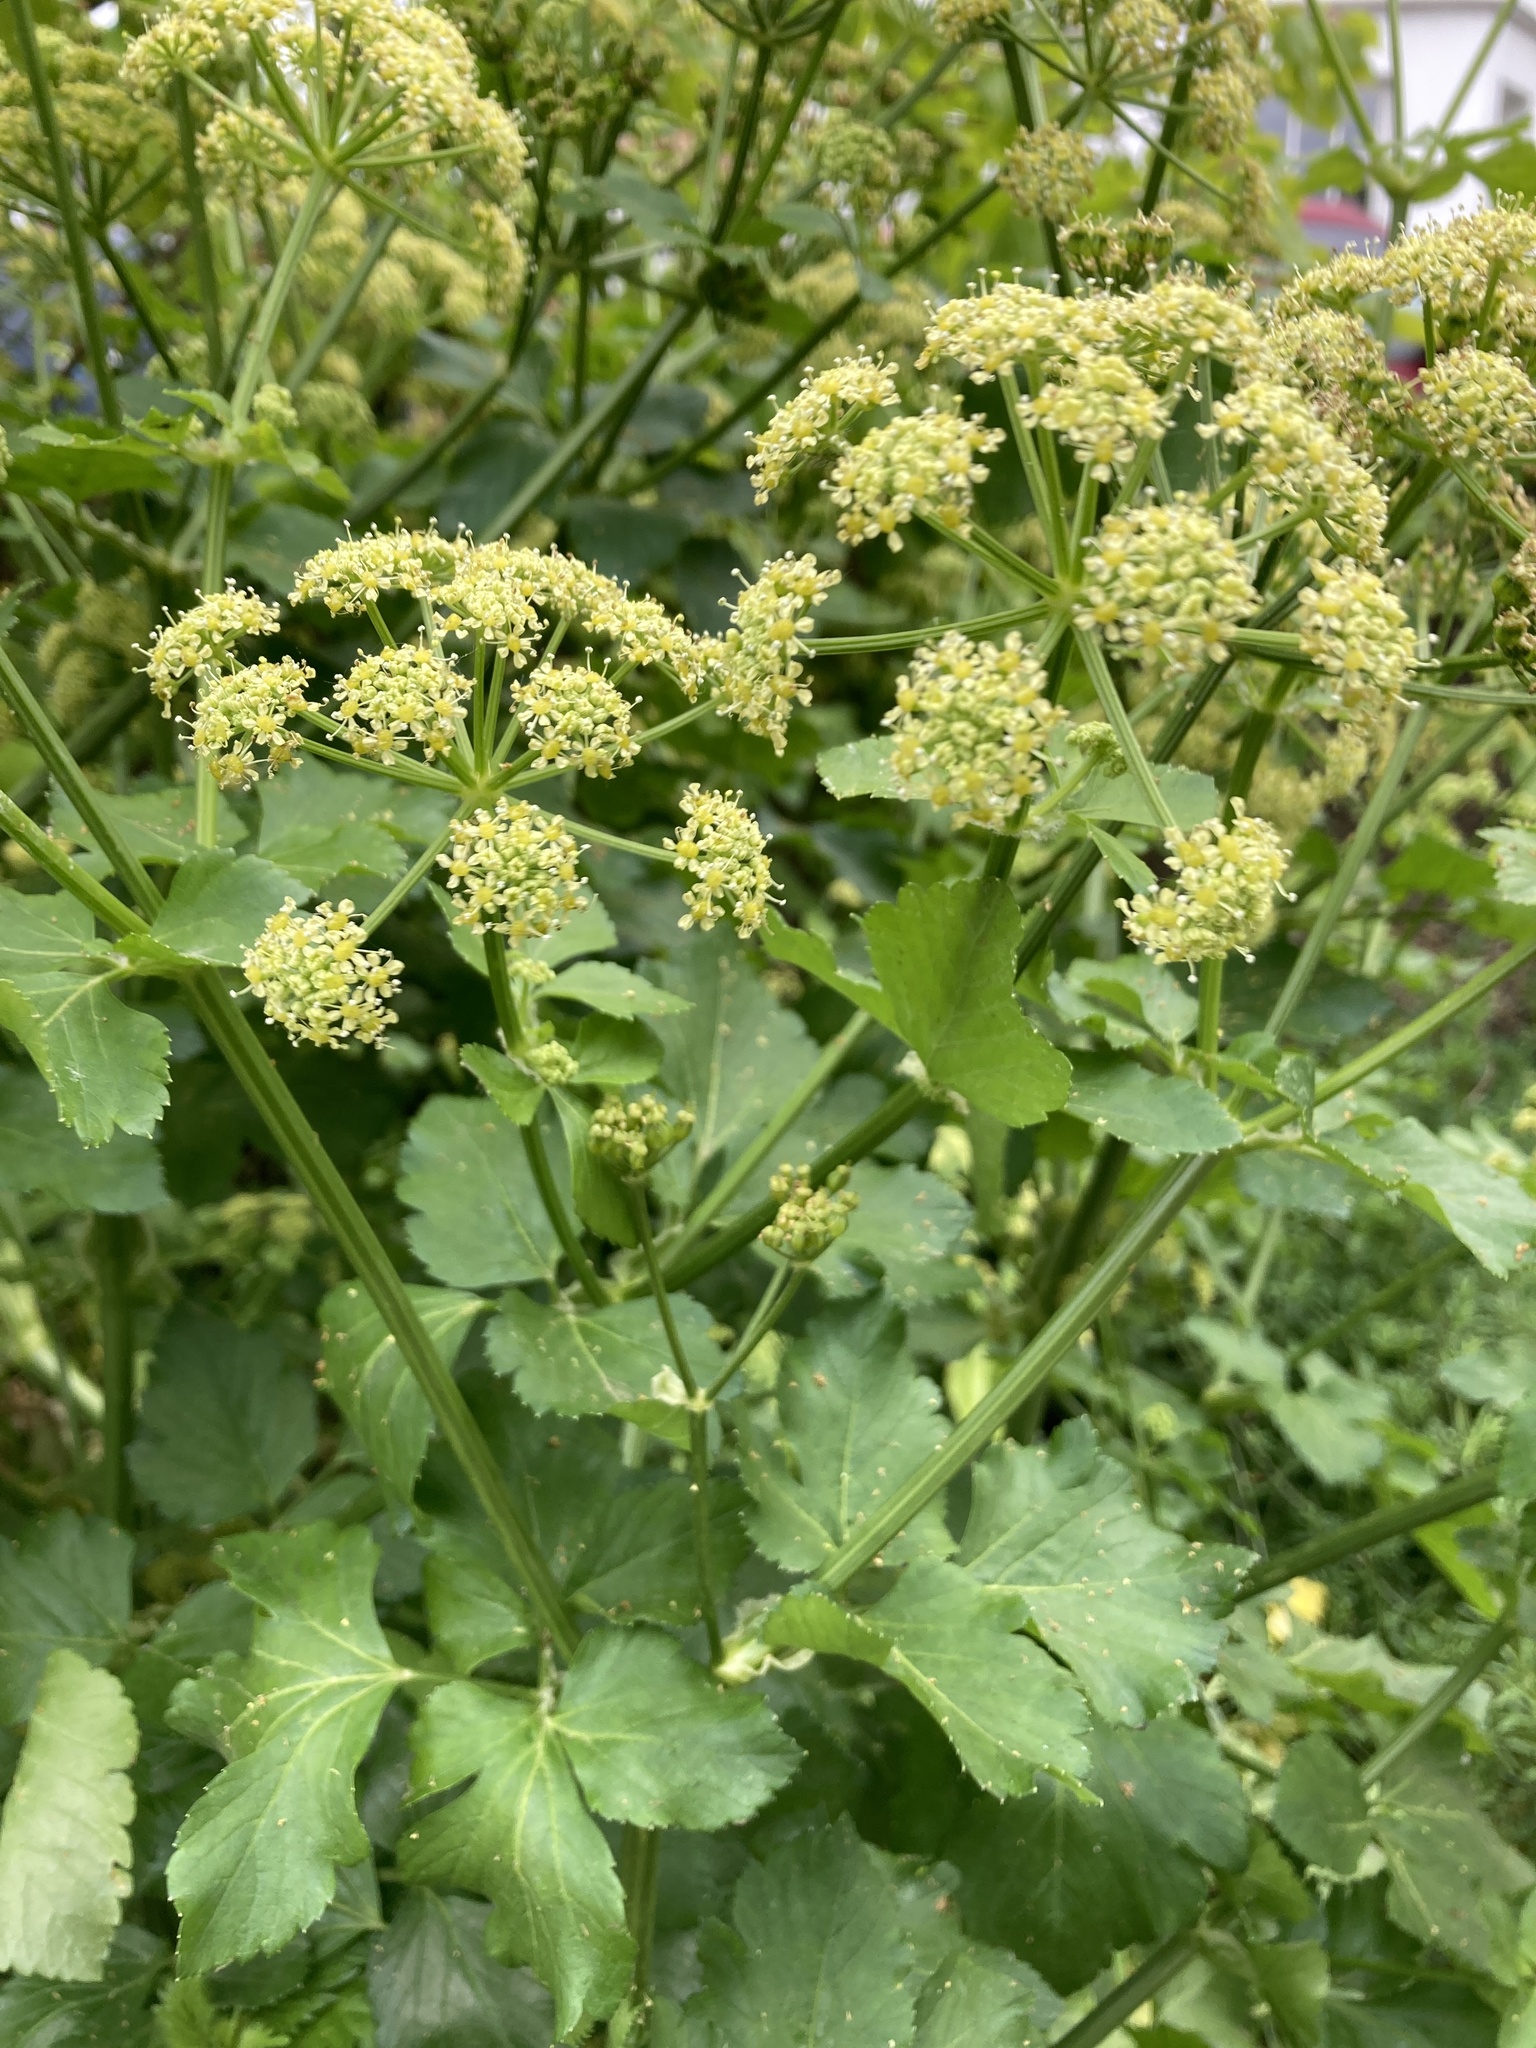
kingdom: Plantae
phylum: Tracheophyta
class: Magnoliopsida
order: Apiales
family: Apiaceae
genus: Smyrnium
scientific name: Smyrnium olusatrum
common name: Alexanders
